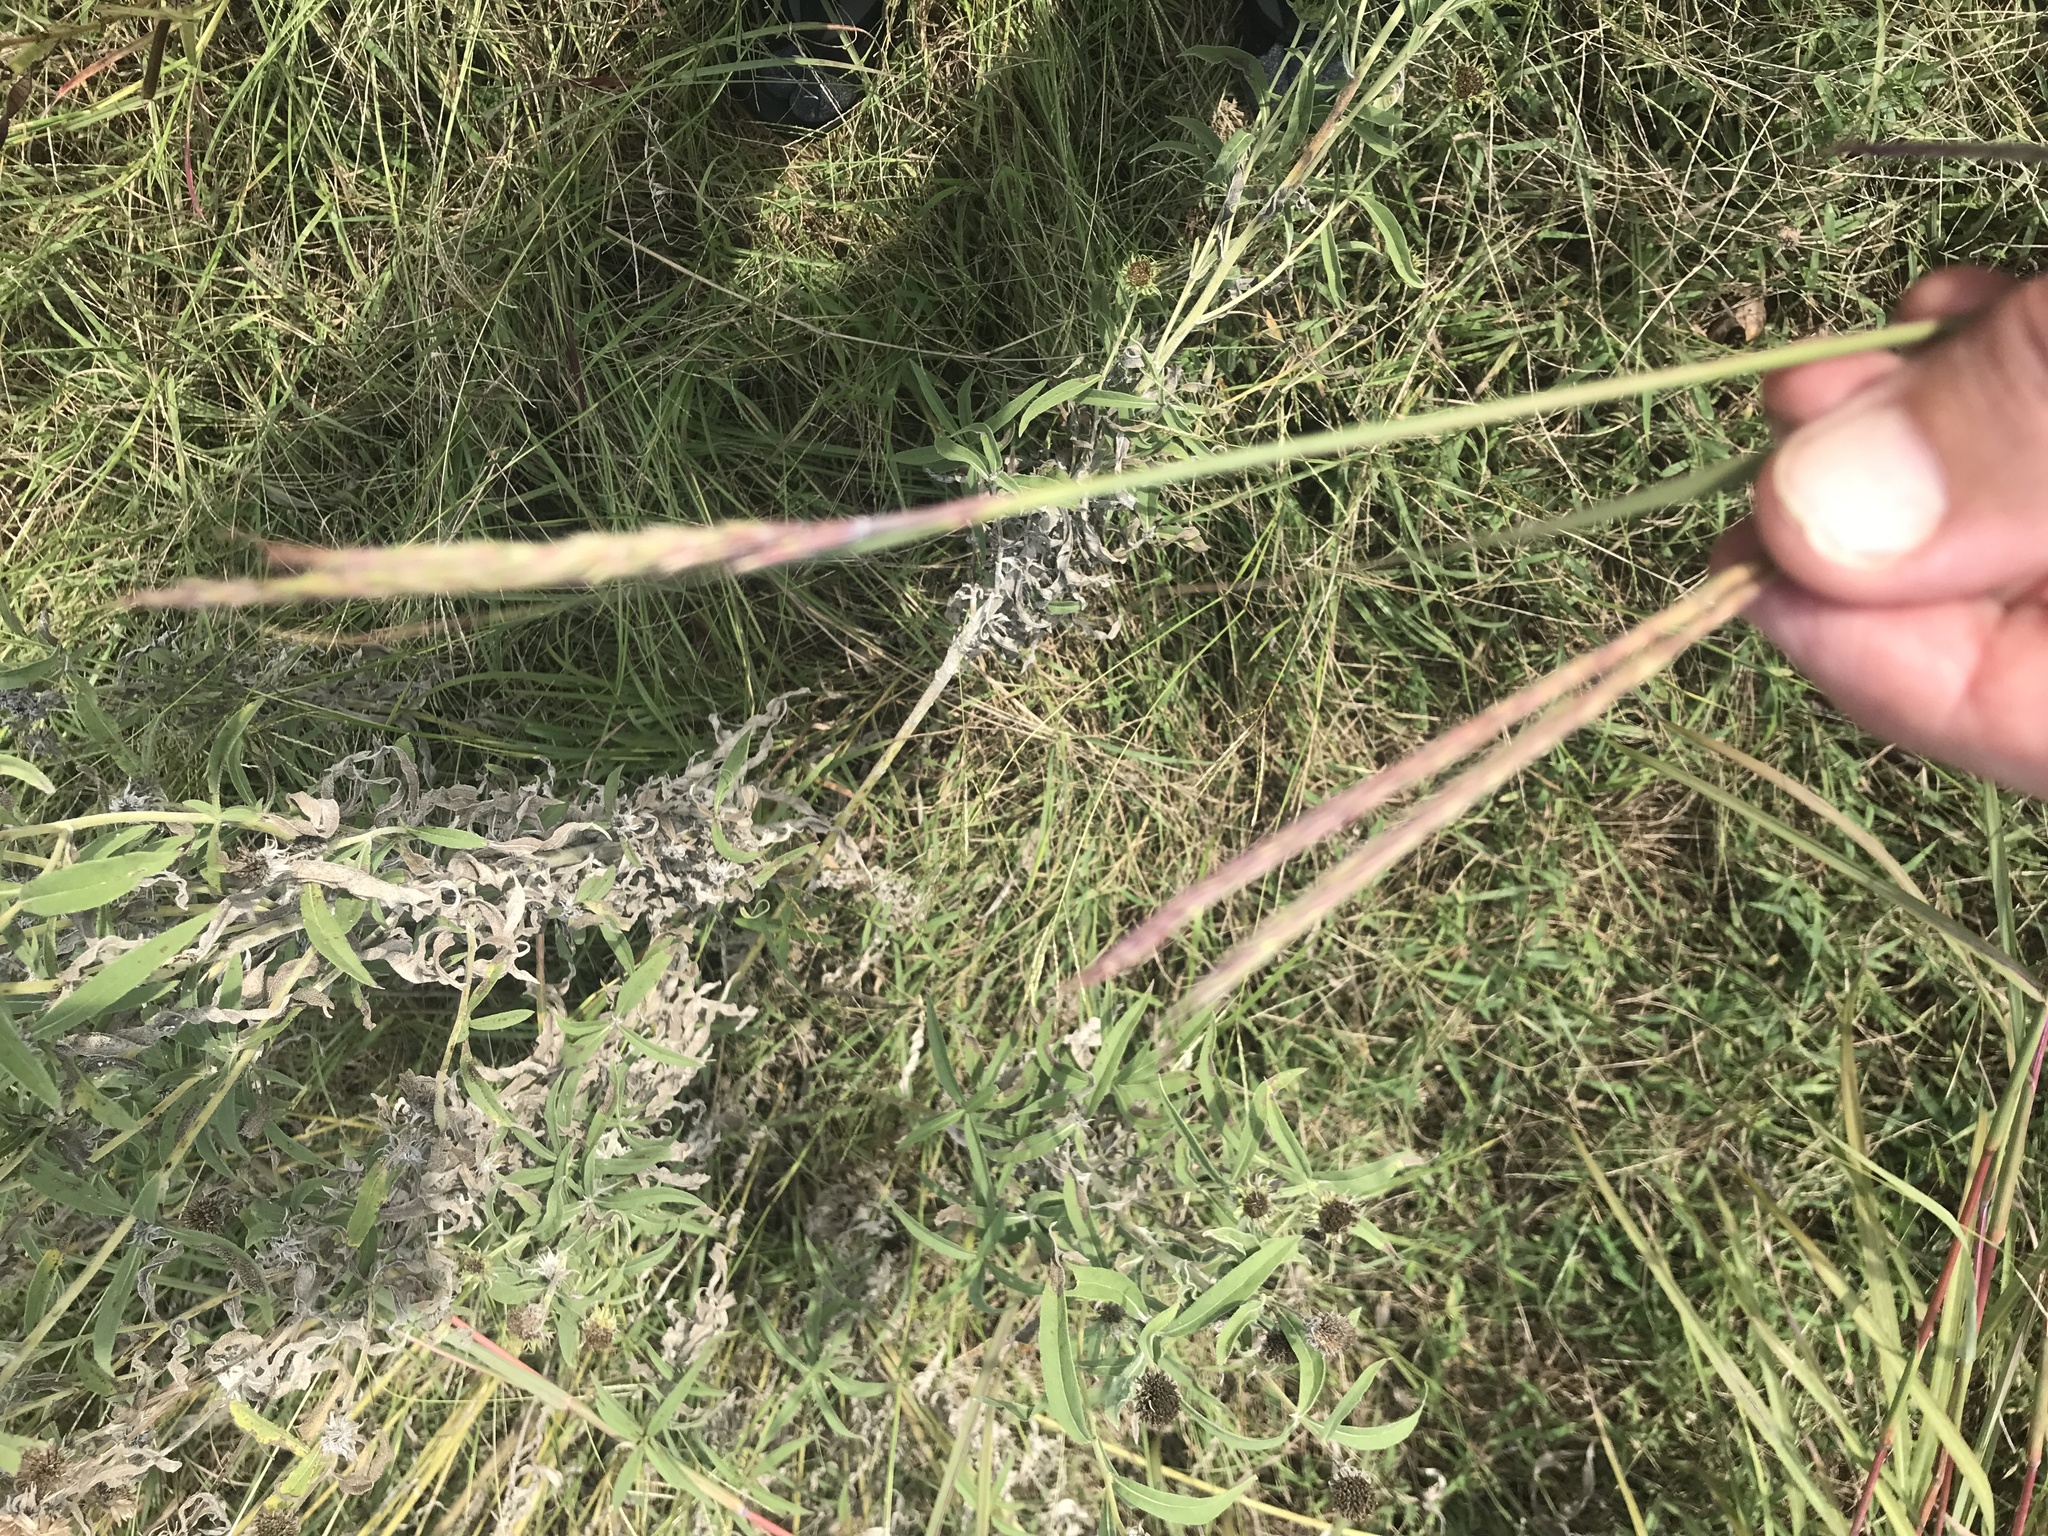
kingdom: Plantae
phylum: Tracheophyta
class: Liliopsida
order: Poales
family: Poaceae
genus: Andropogon
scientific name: Andropogon gerardi
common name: Big bluestem
